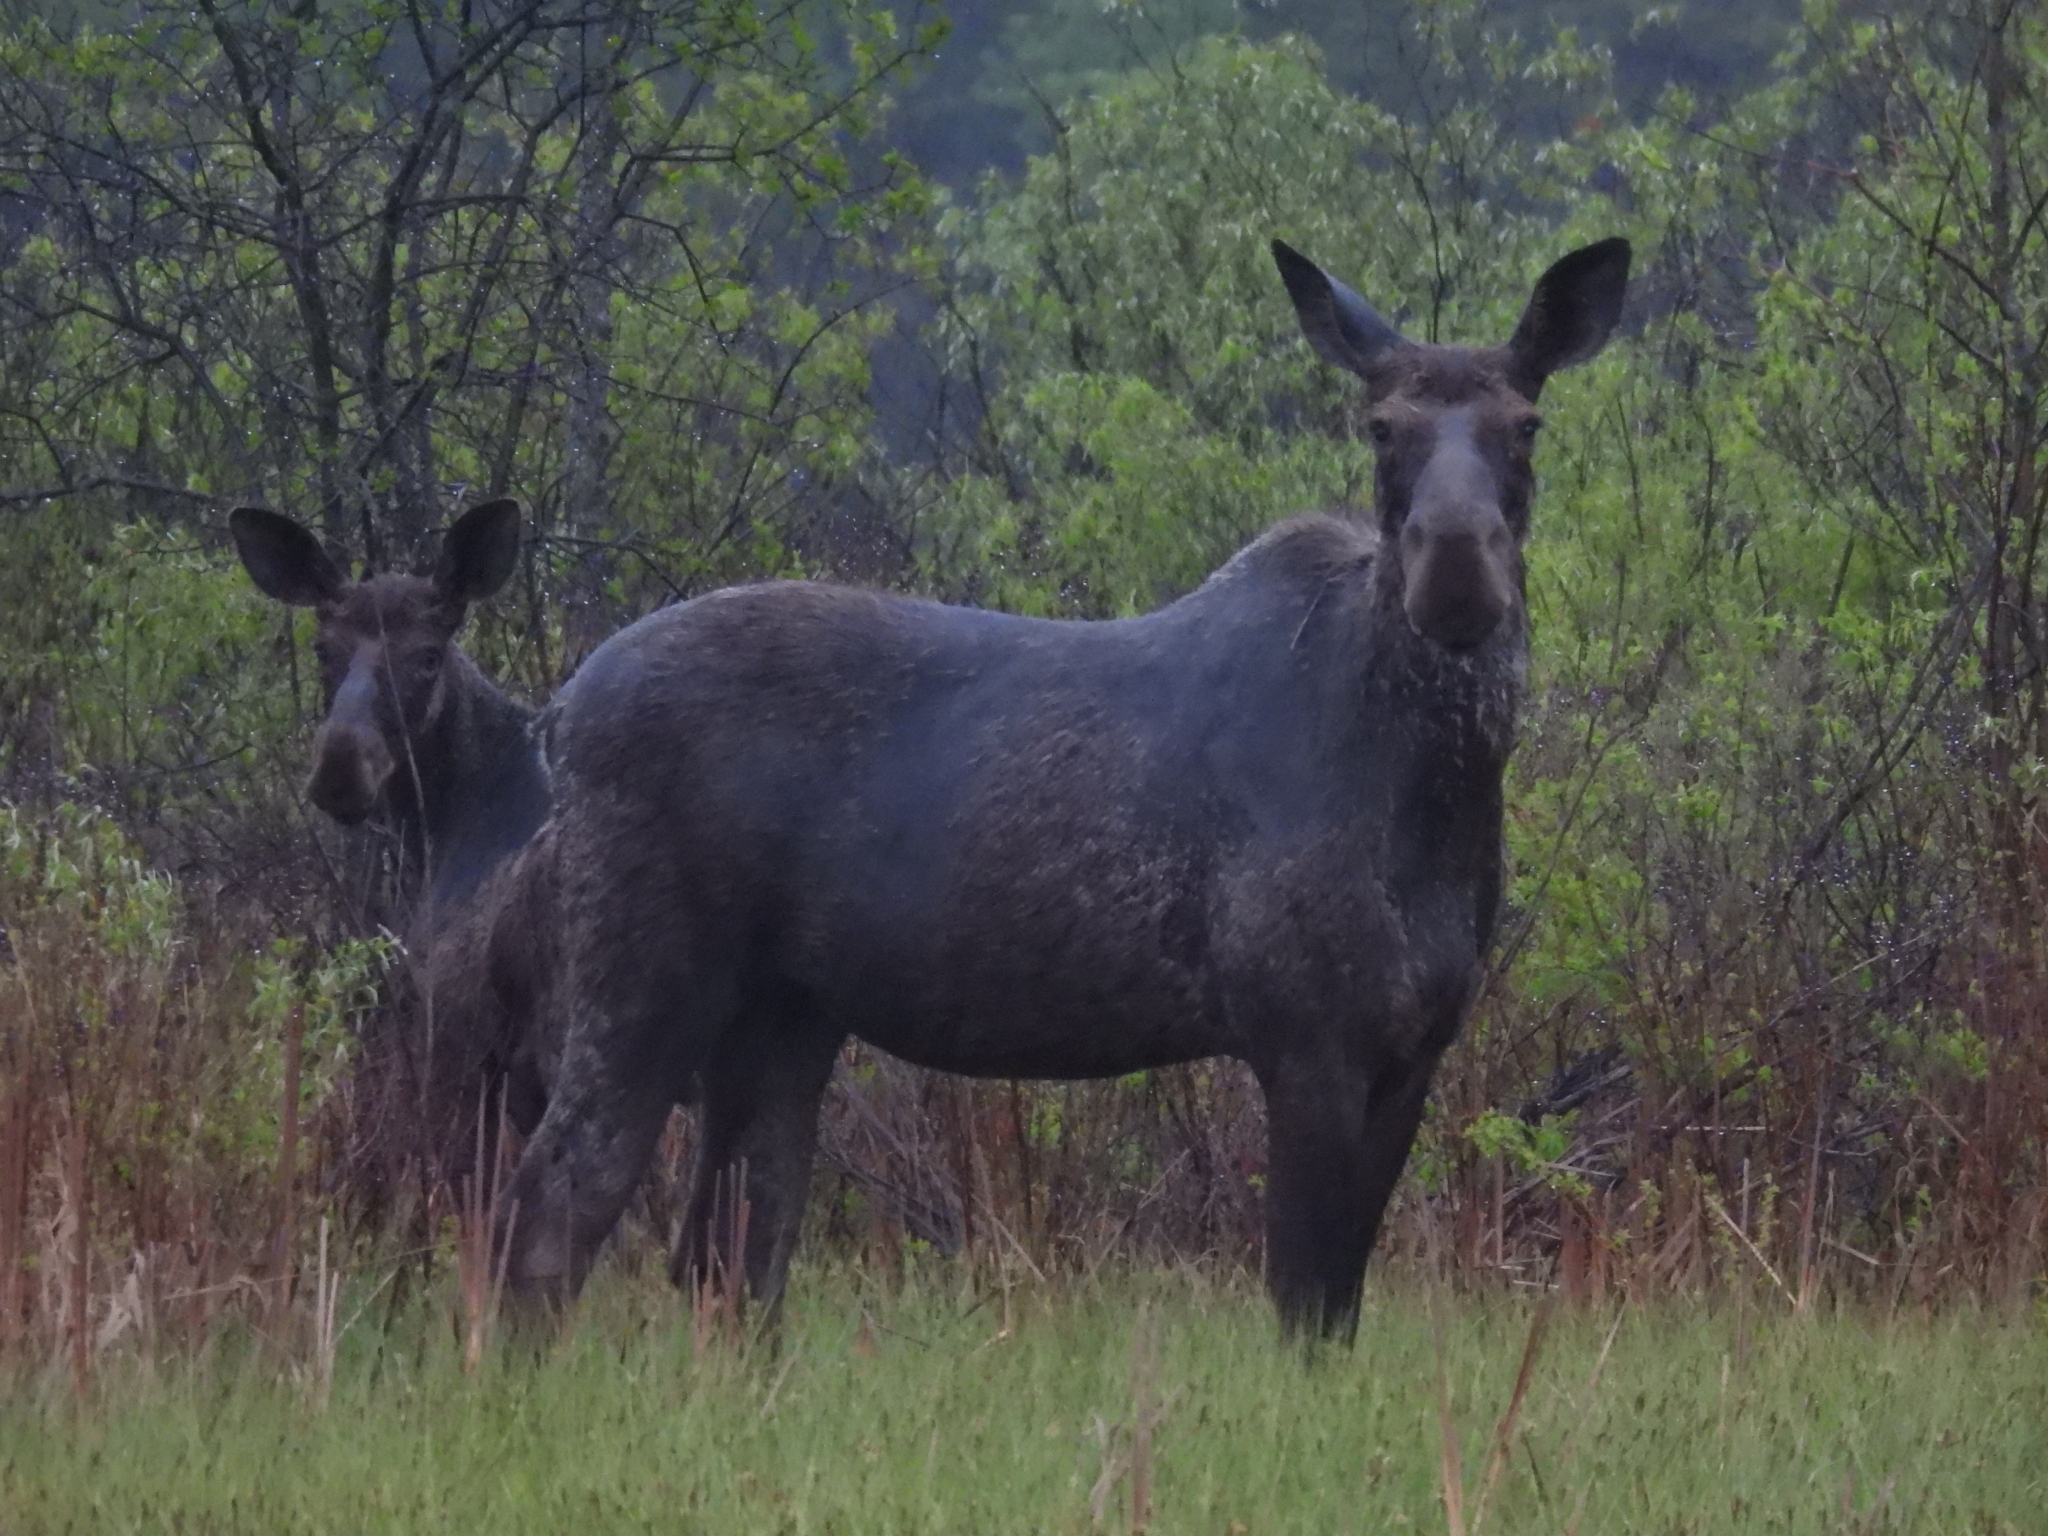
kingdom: Animalia
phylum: Chordata
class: Mammalia
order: Artiodactyla
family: Cervidae
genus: Alces
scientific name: Alces alces
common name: Moose
